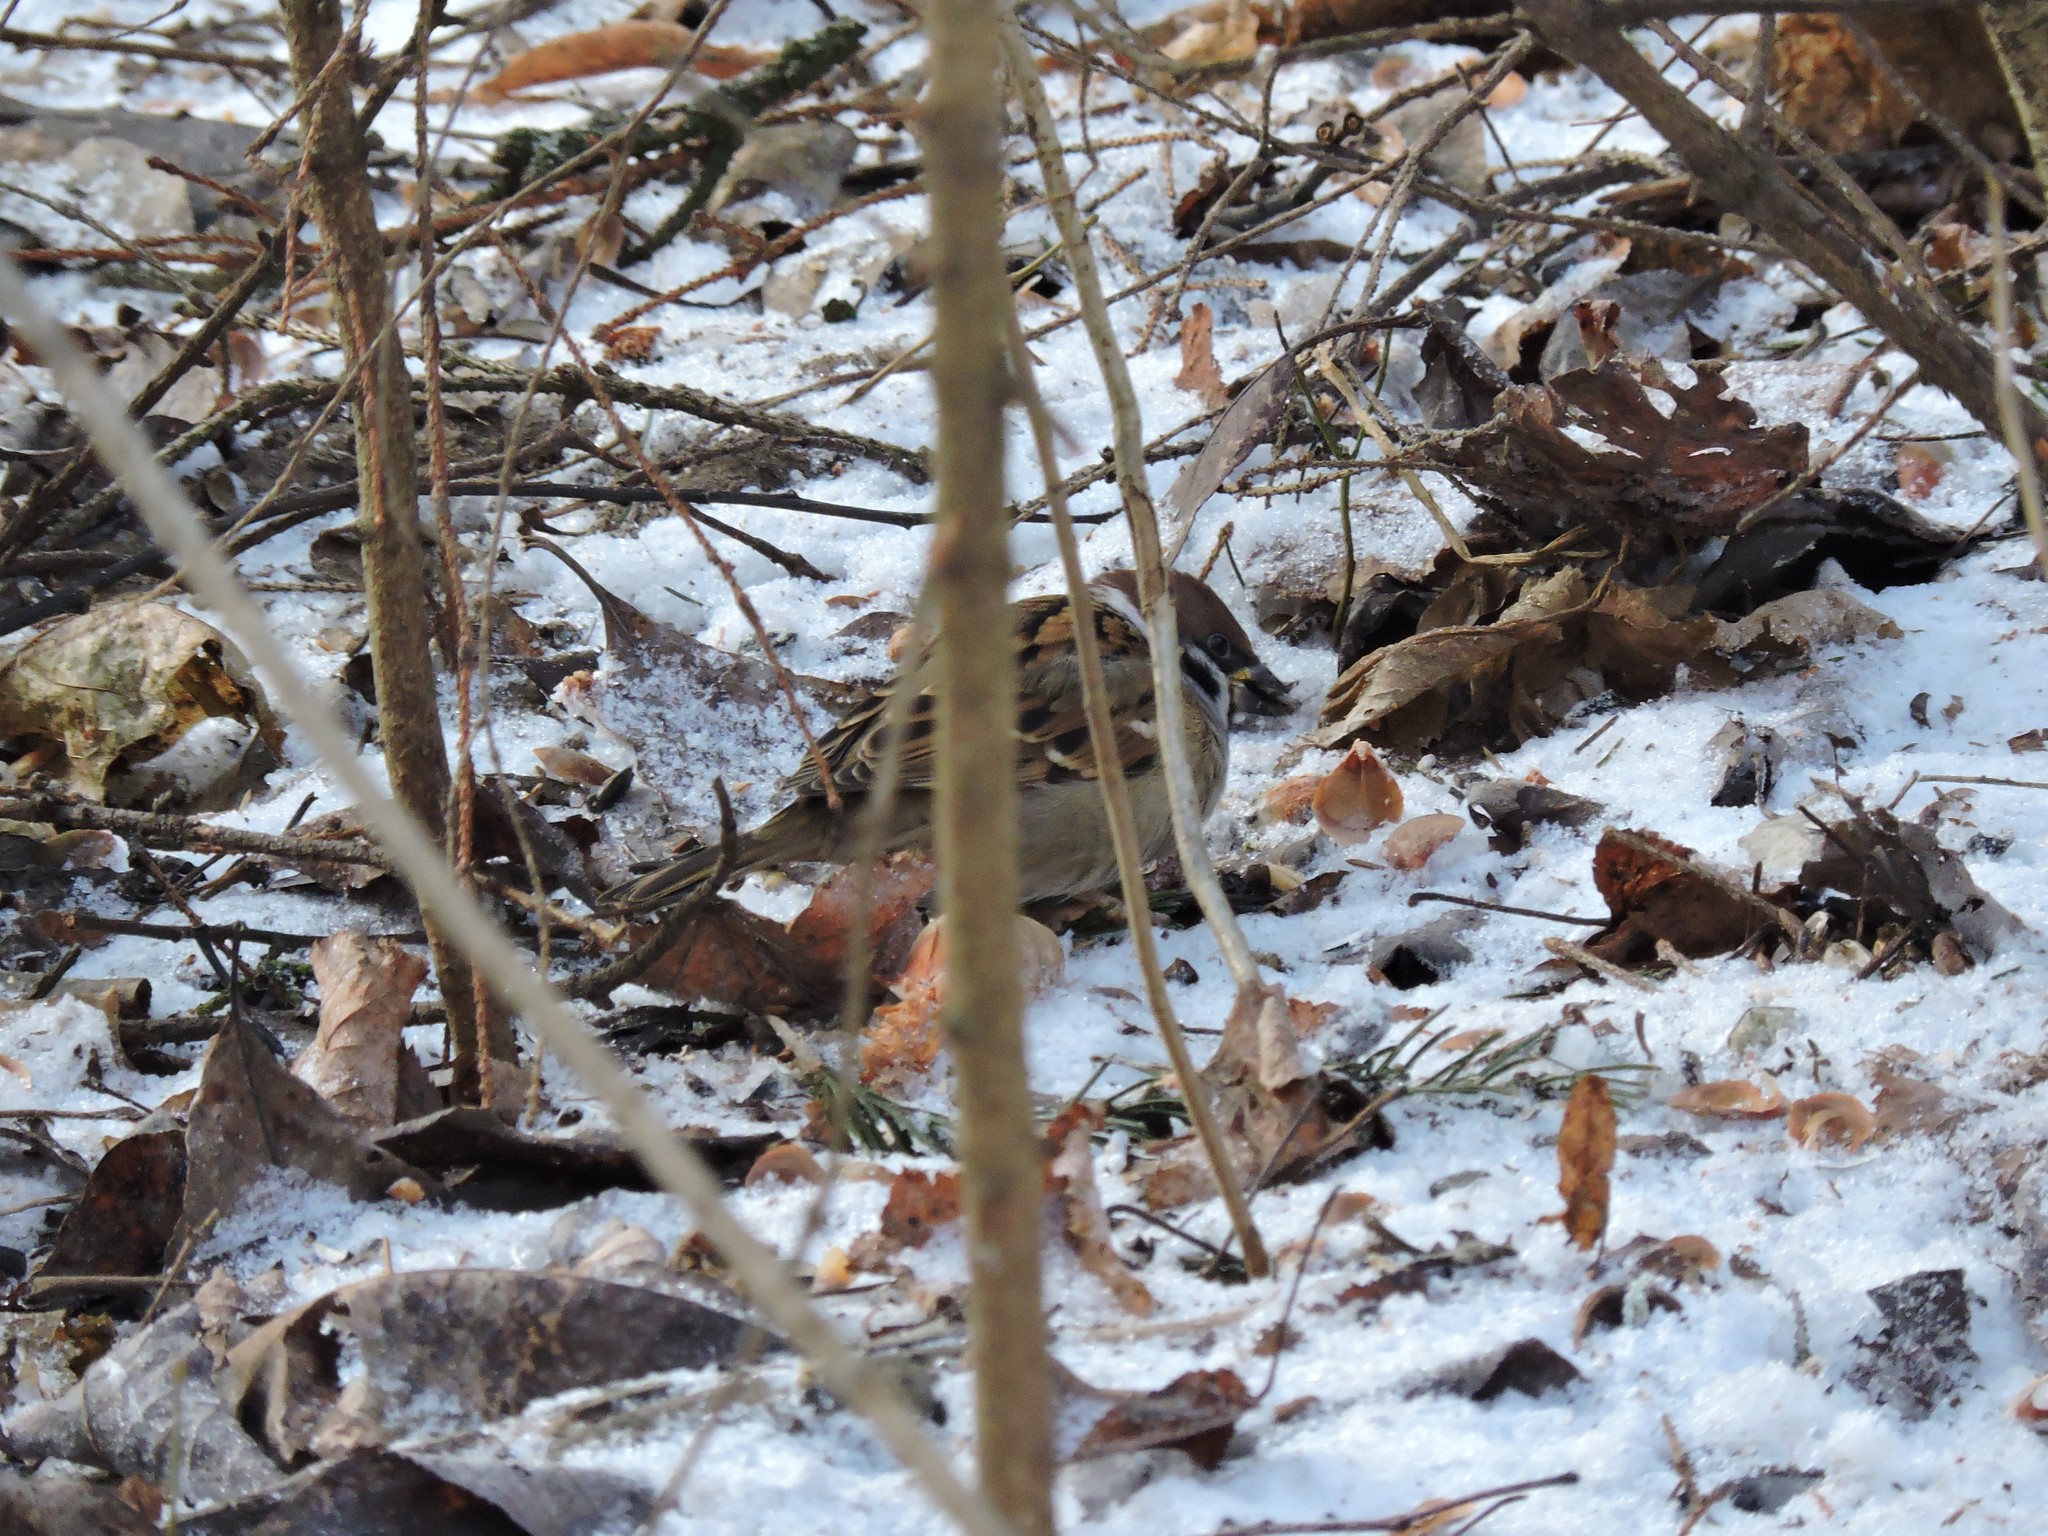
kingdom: Animalia
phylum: Chordata
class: Aves
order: Passeriformes
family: Passeridae
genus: Passer
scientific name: Passer montanus
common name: Eurasian tree sparrow
